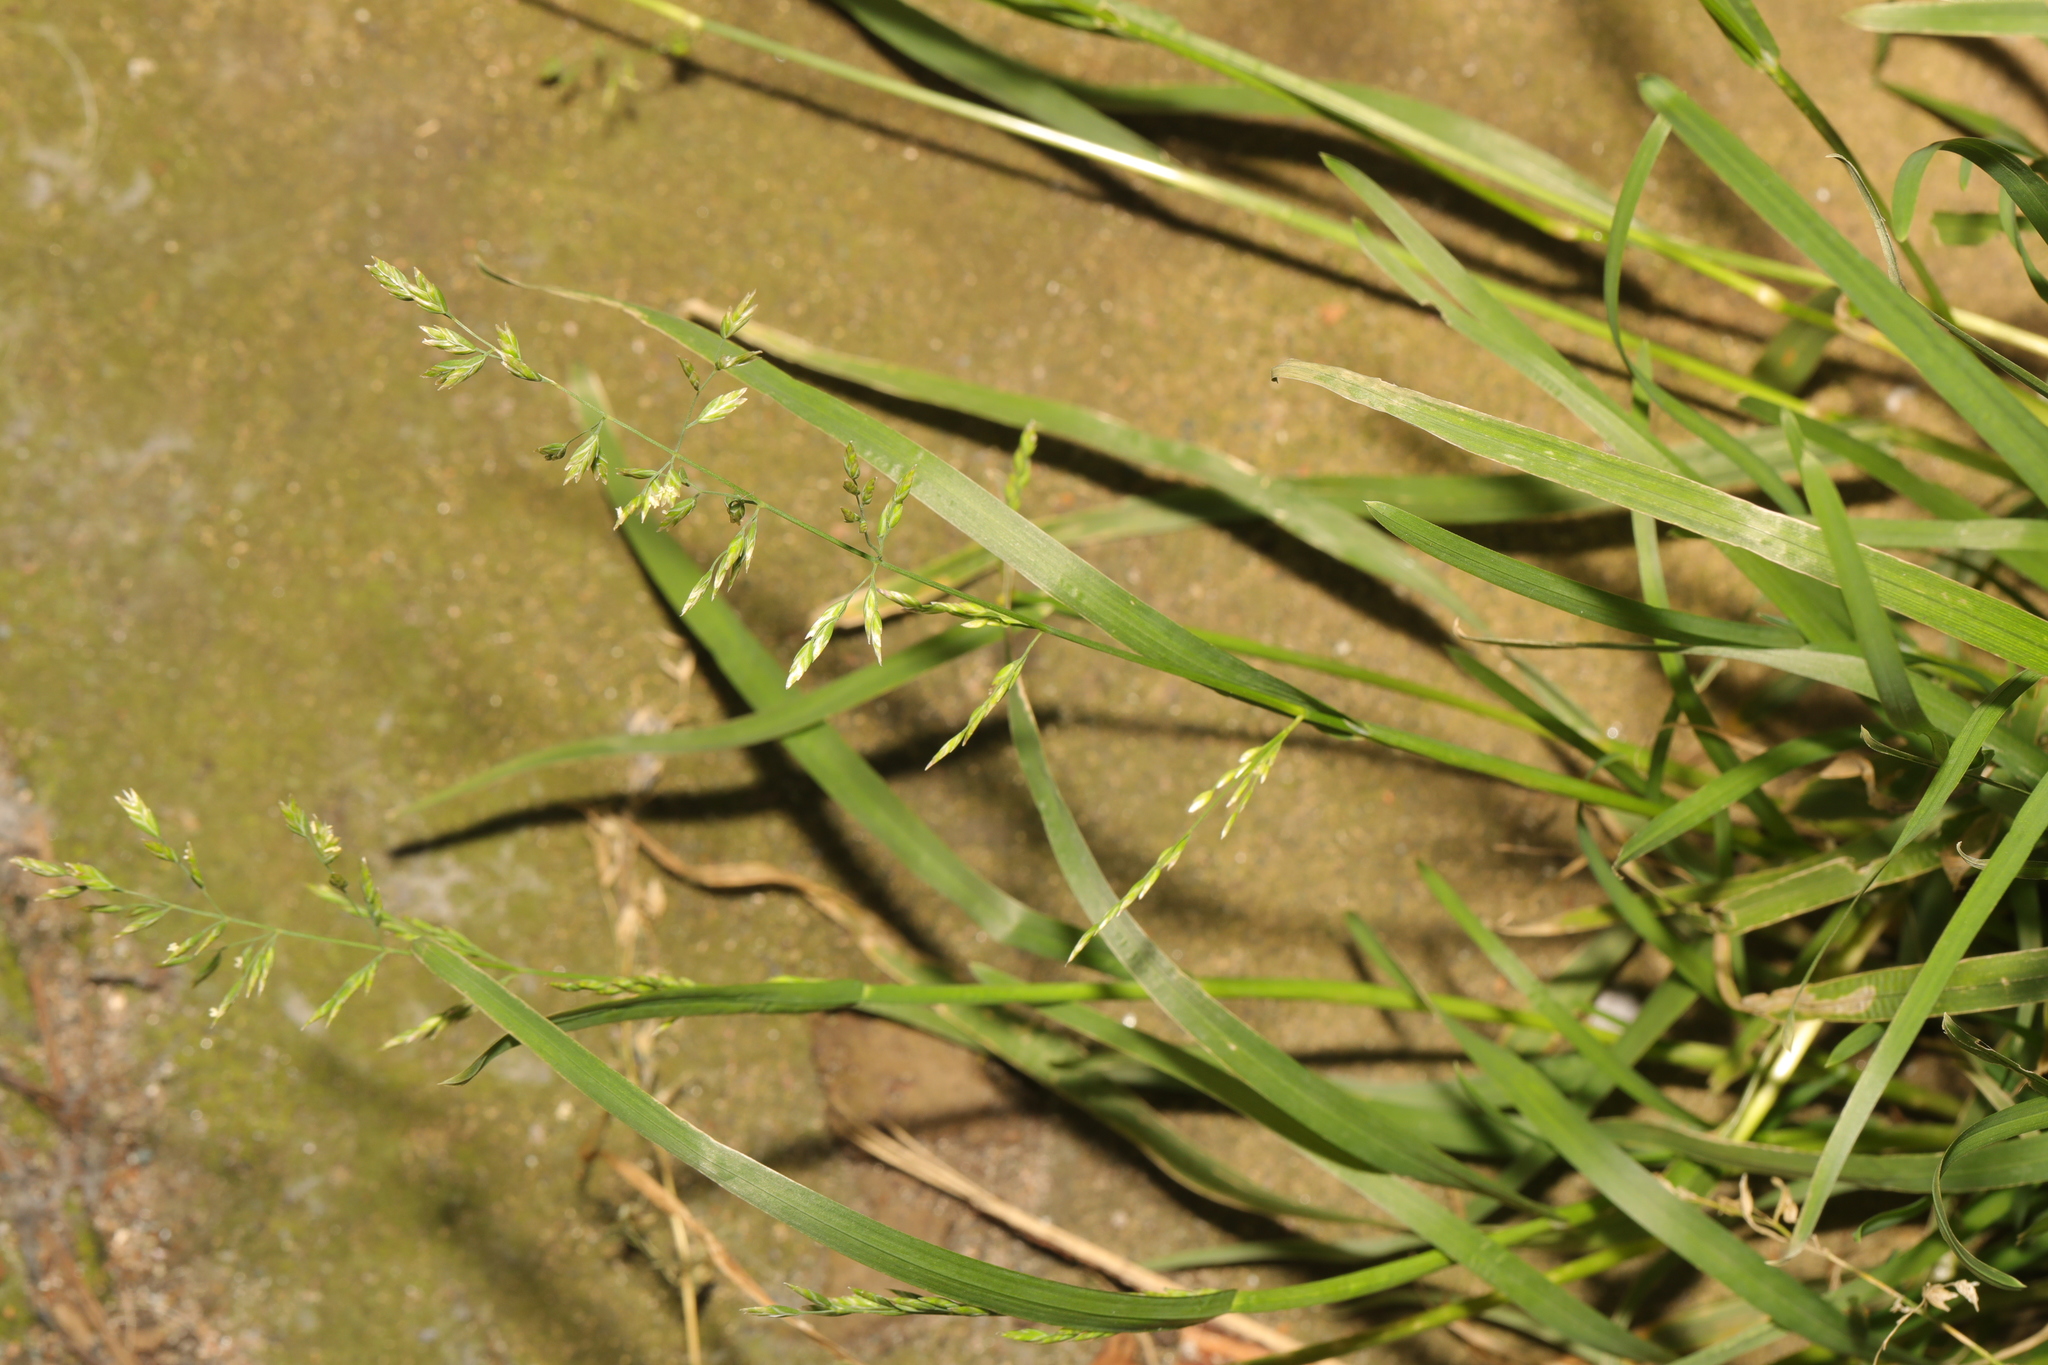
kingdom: Plantae
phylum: Tracheophyta
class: Liliopsida
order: Poales
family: Poaceae
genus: Poa
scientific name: Poa annua
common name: Annual bluegrass
